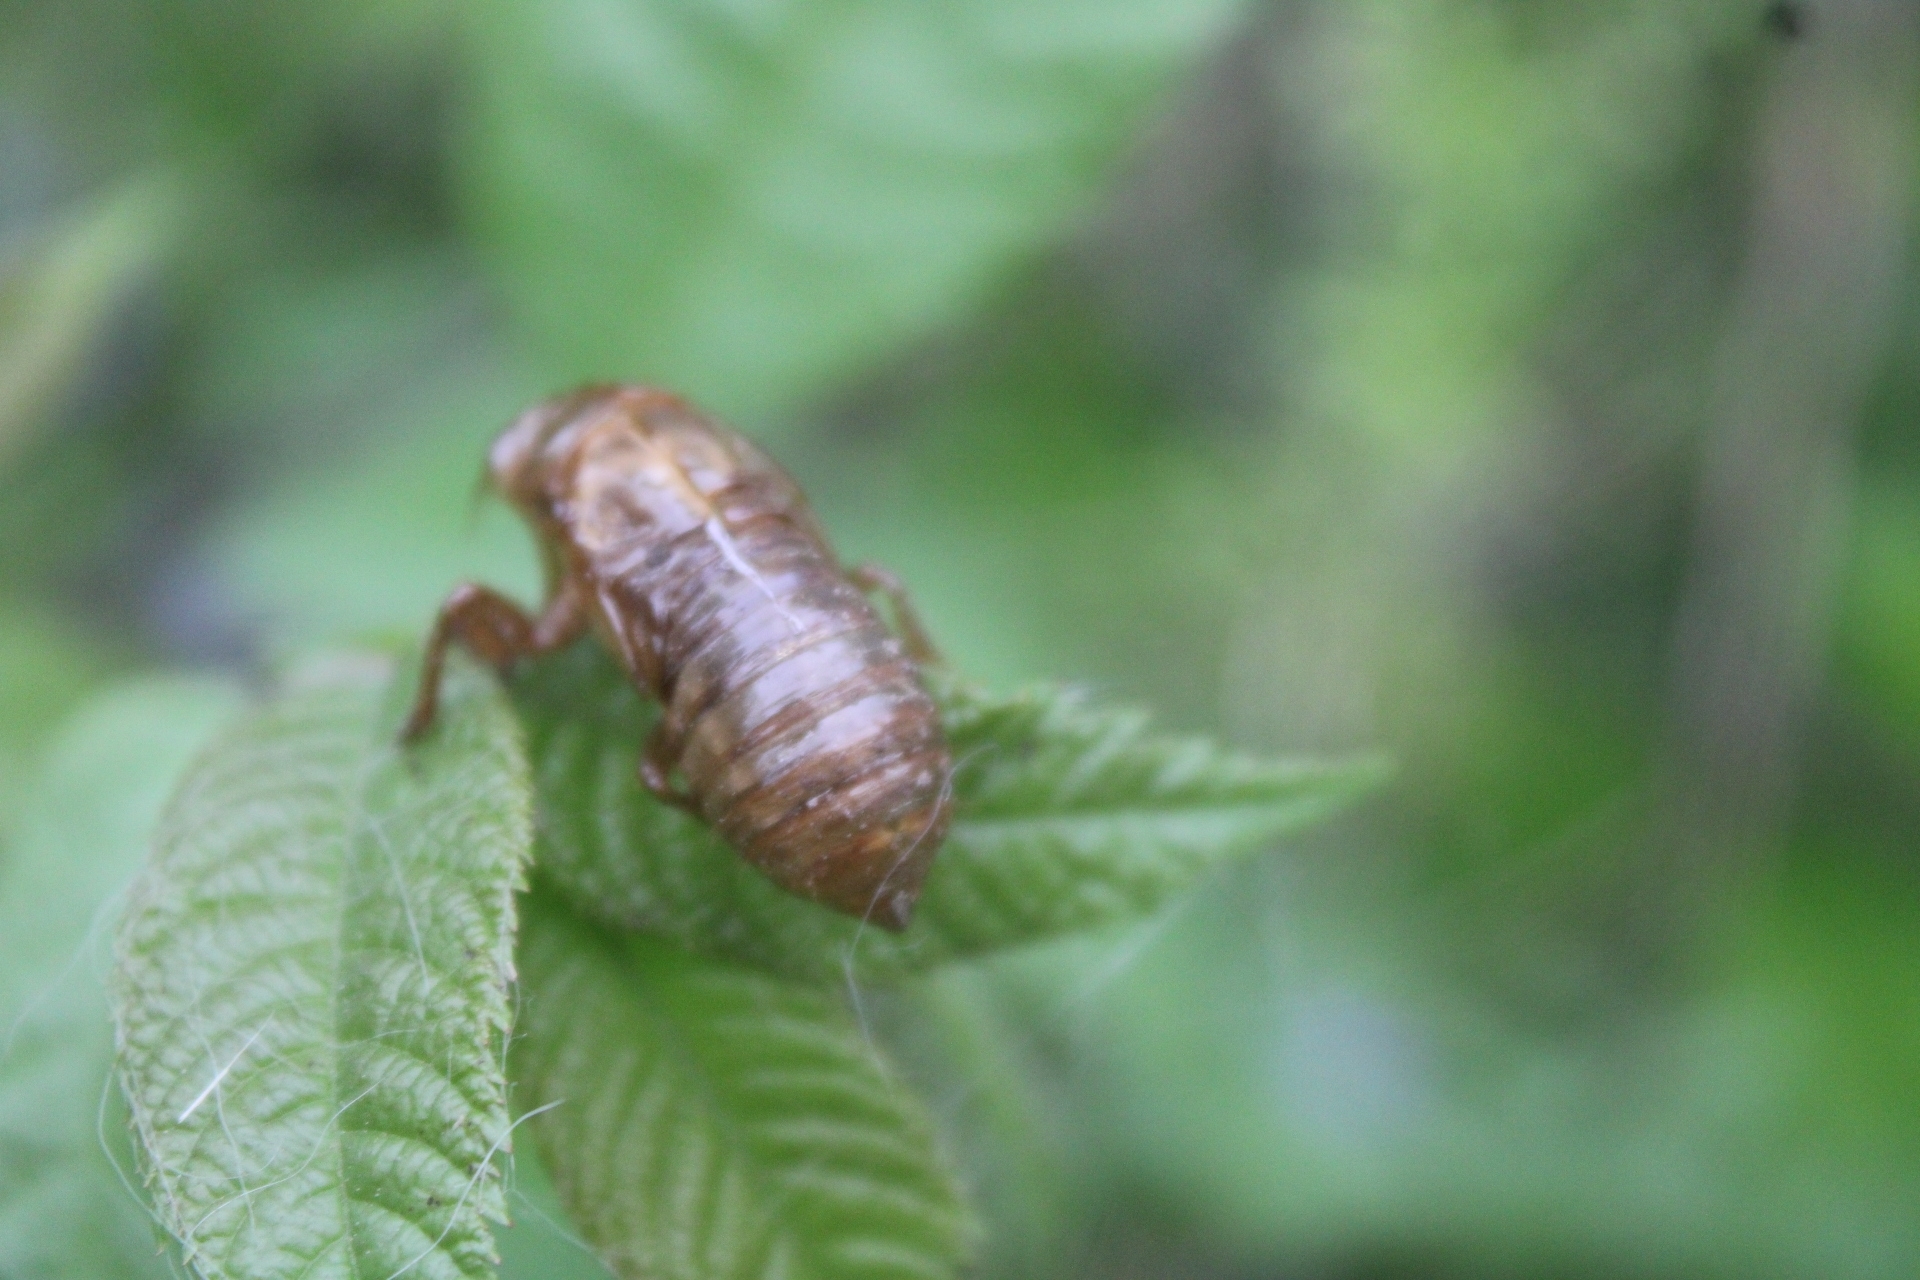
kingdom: Animalia
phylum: Arthropoda
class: Insecta
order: Hemiptera
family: Cicadidae
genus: Magicicada
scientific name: Magicicada
